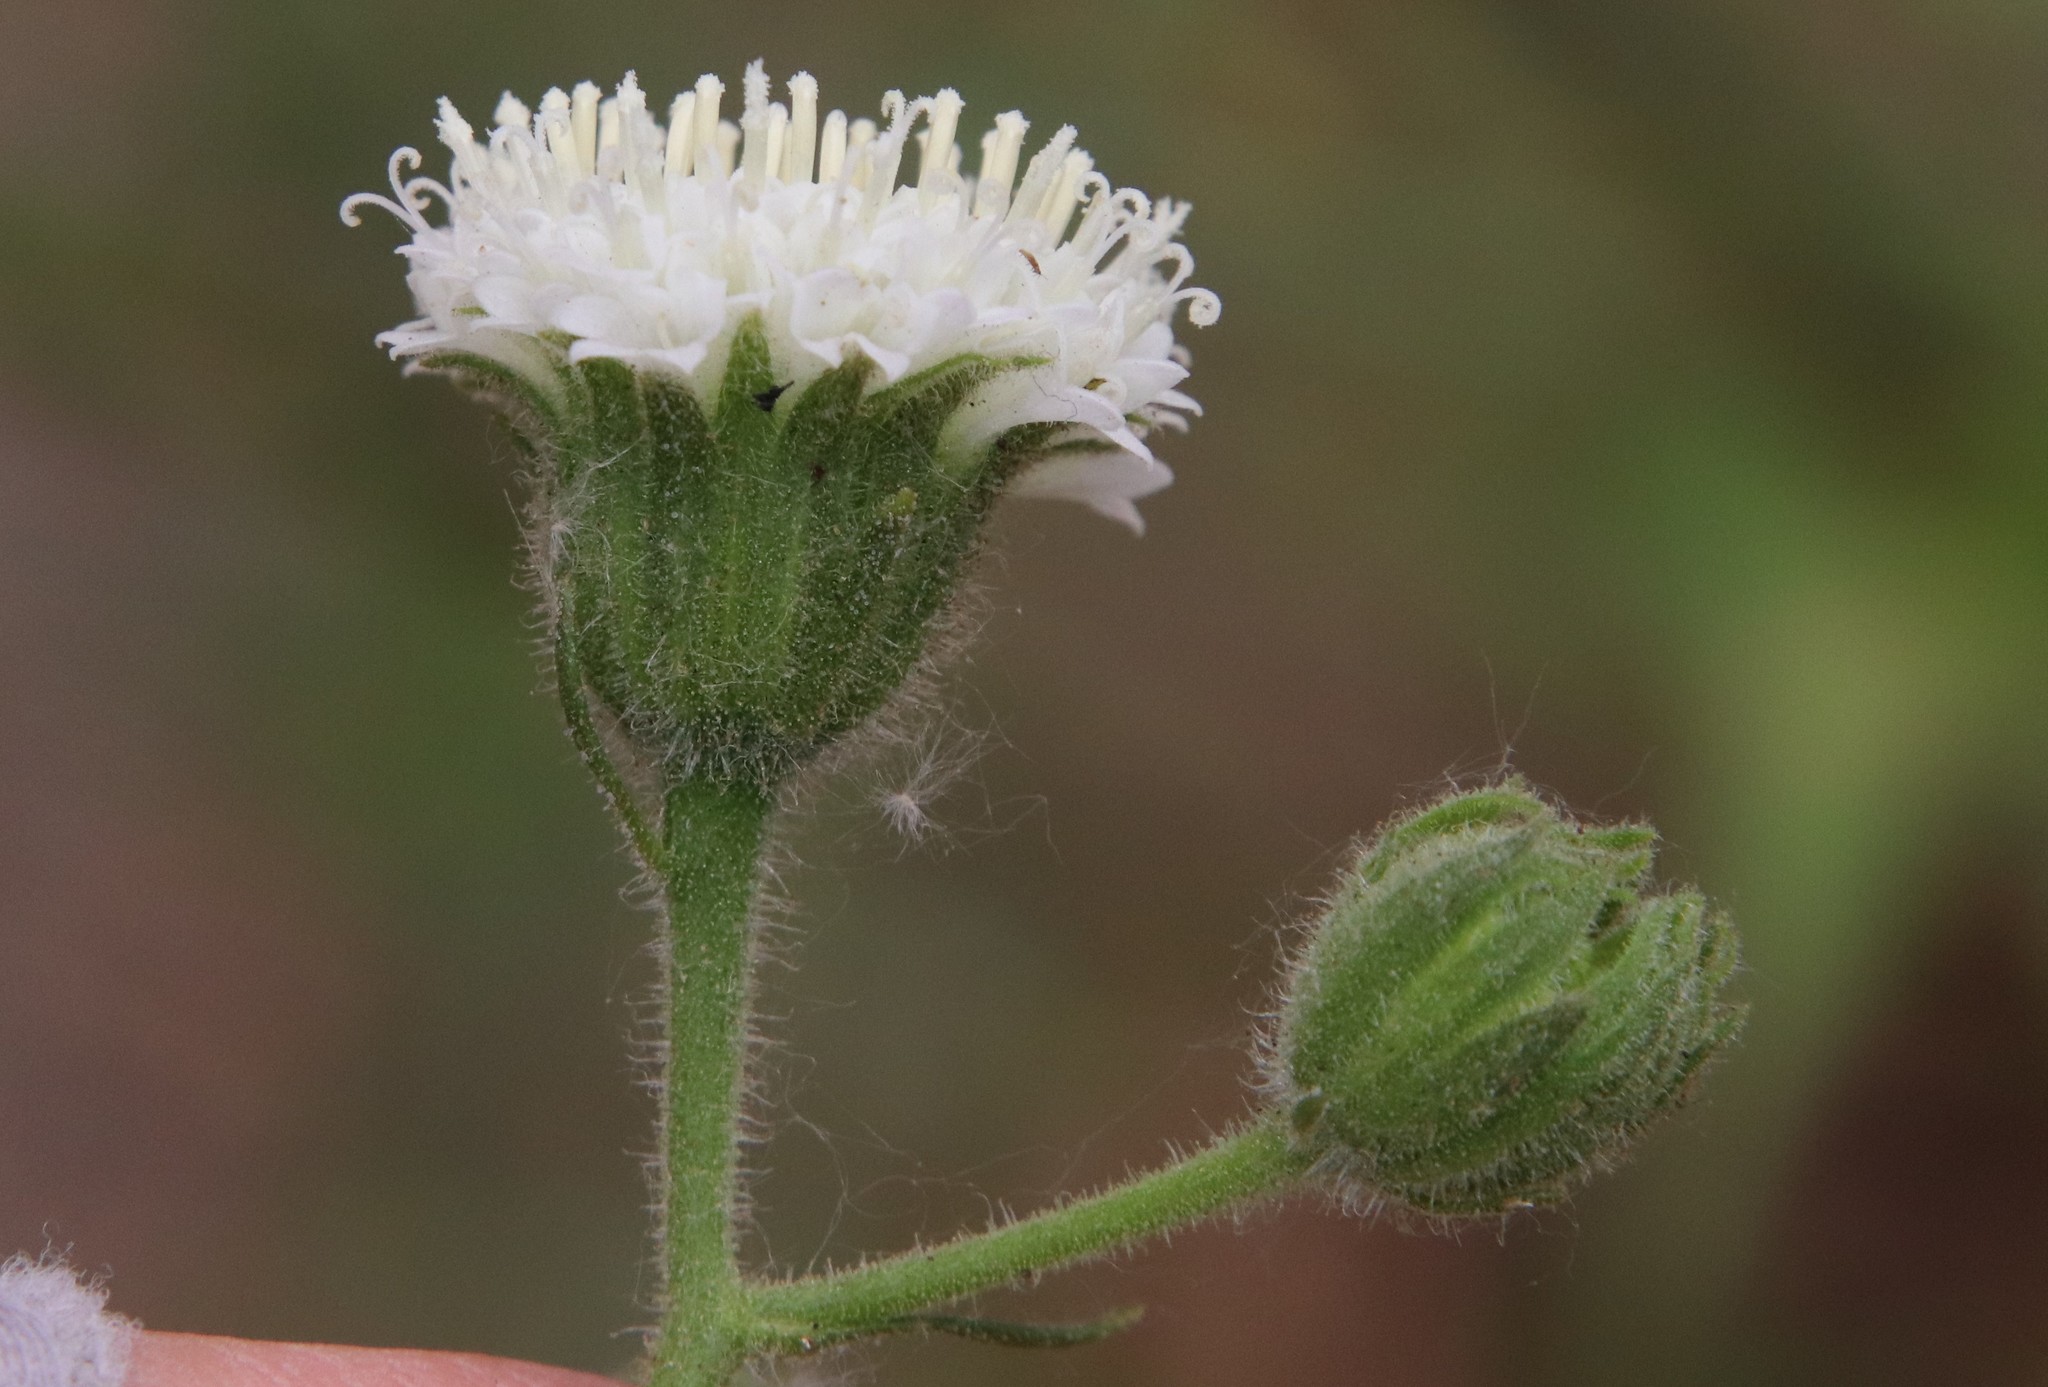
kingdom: Plantae
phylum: Tracheophyta
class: Magnoliopsida
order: Asterales
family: Asteraceae
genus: Chaenactis
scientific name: Chaenactis artemisiifolia
